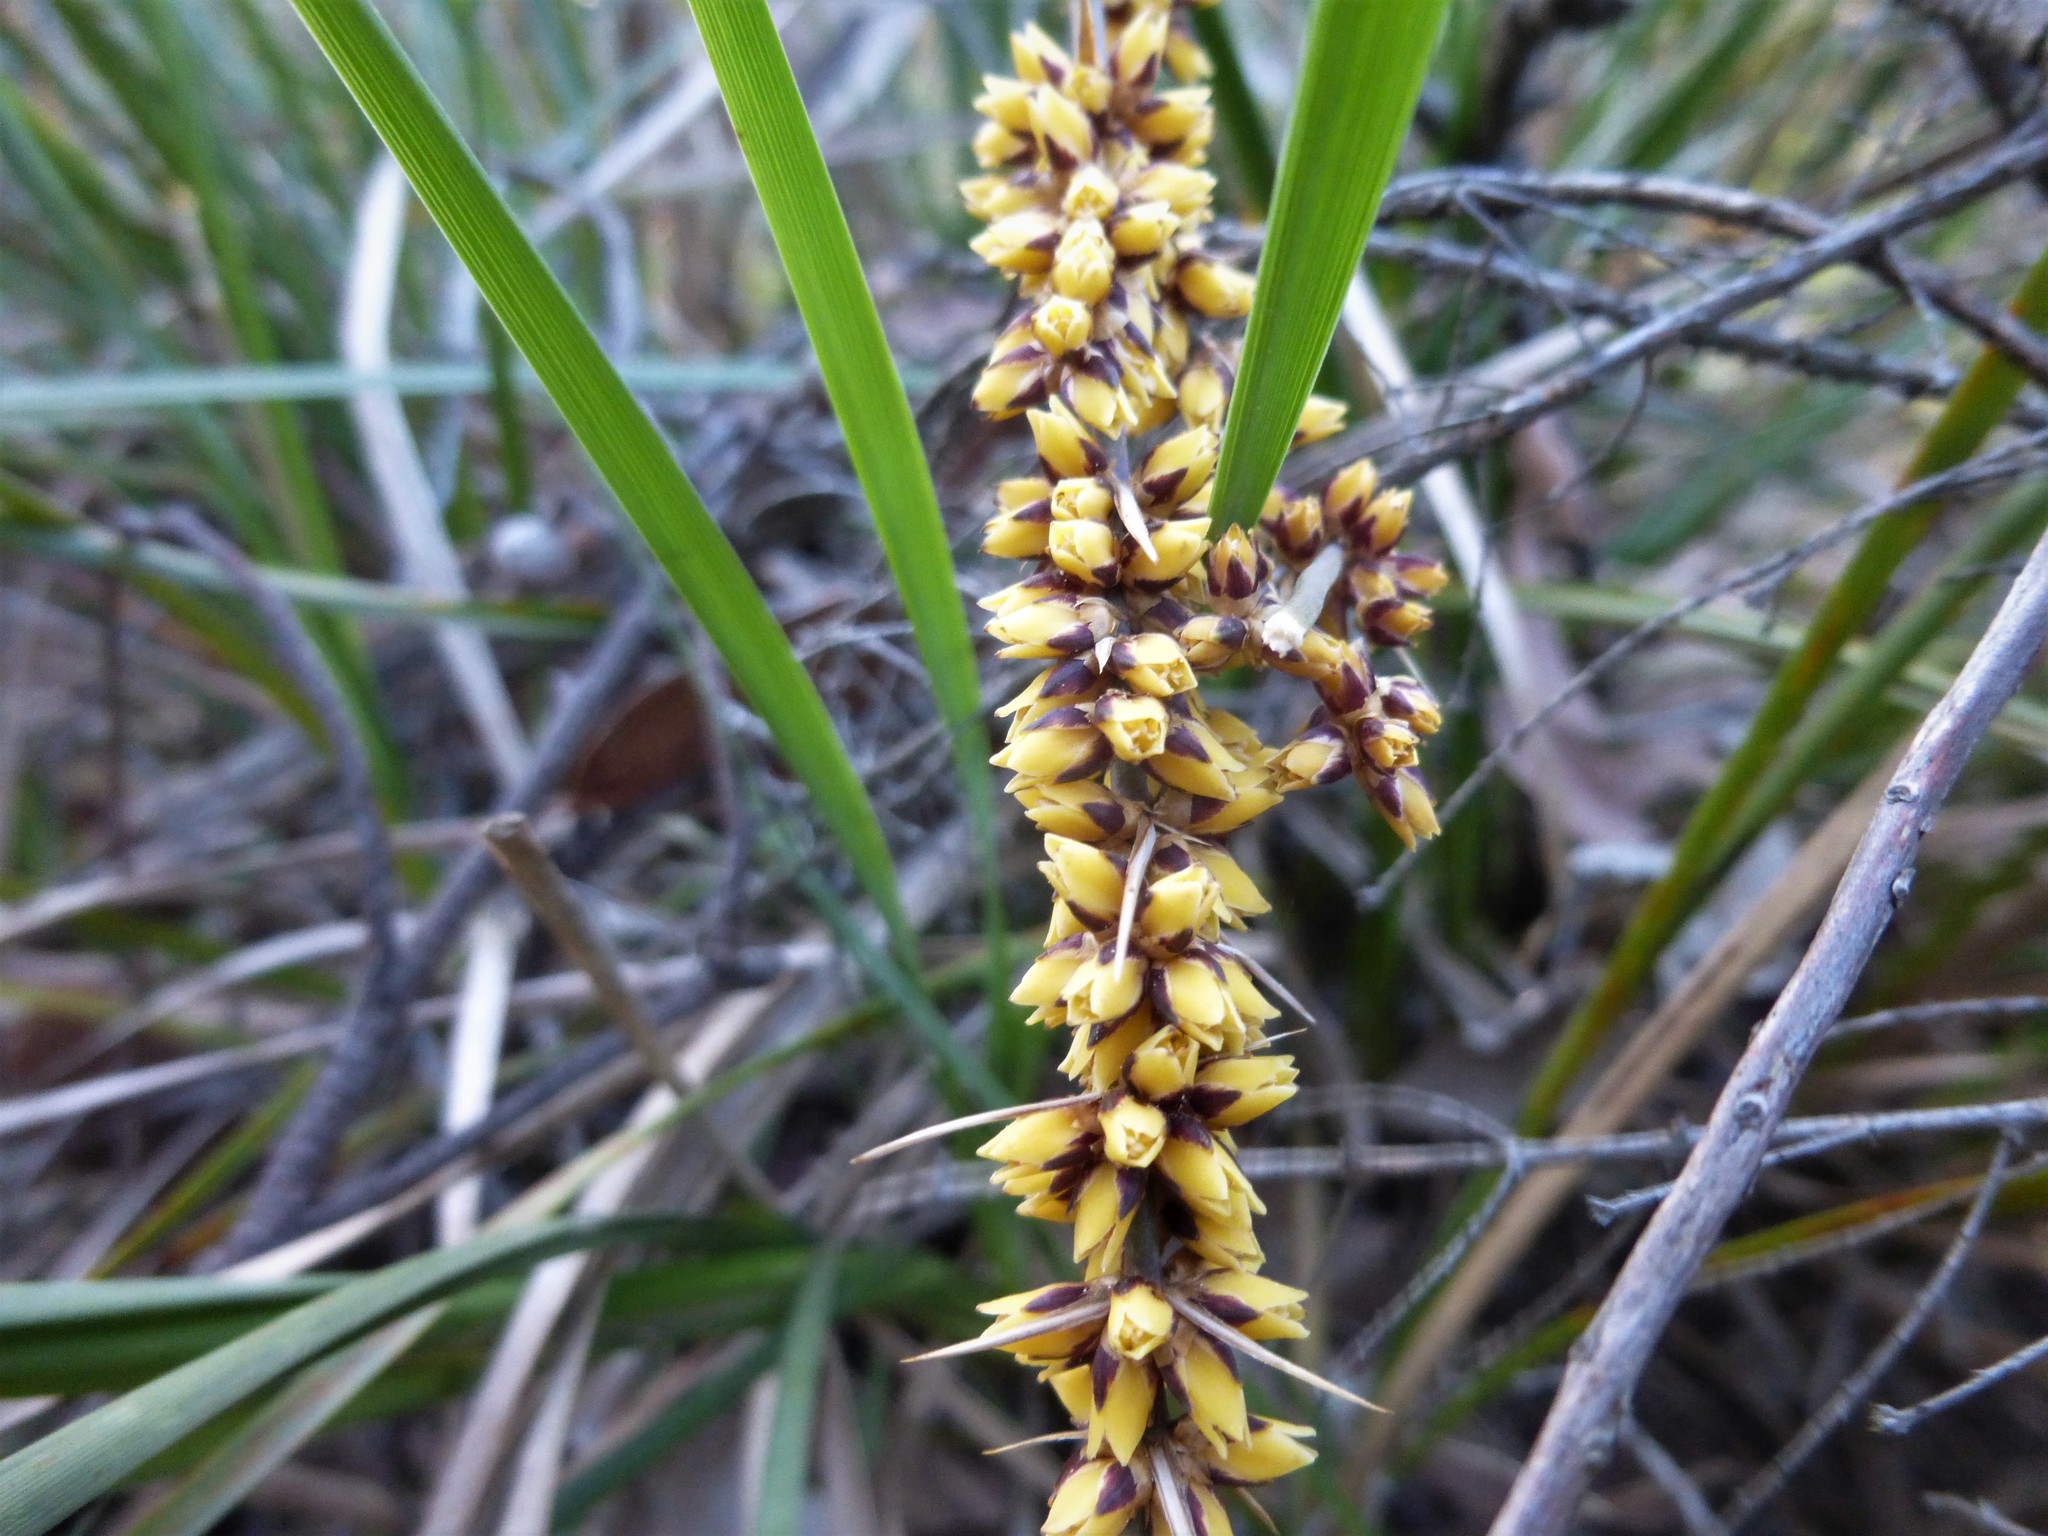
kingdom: Plantae
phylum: Tracheophyta
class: Liliopsida
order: Asparagales
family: Asparagaceae
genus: Lomandra
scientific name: Lomandra longifolia
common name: Longleaf mat-rush
